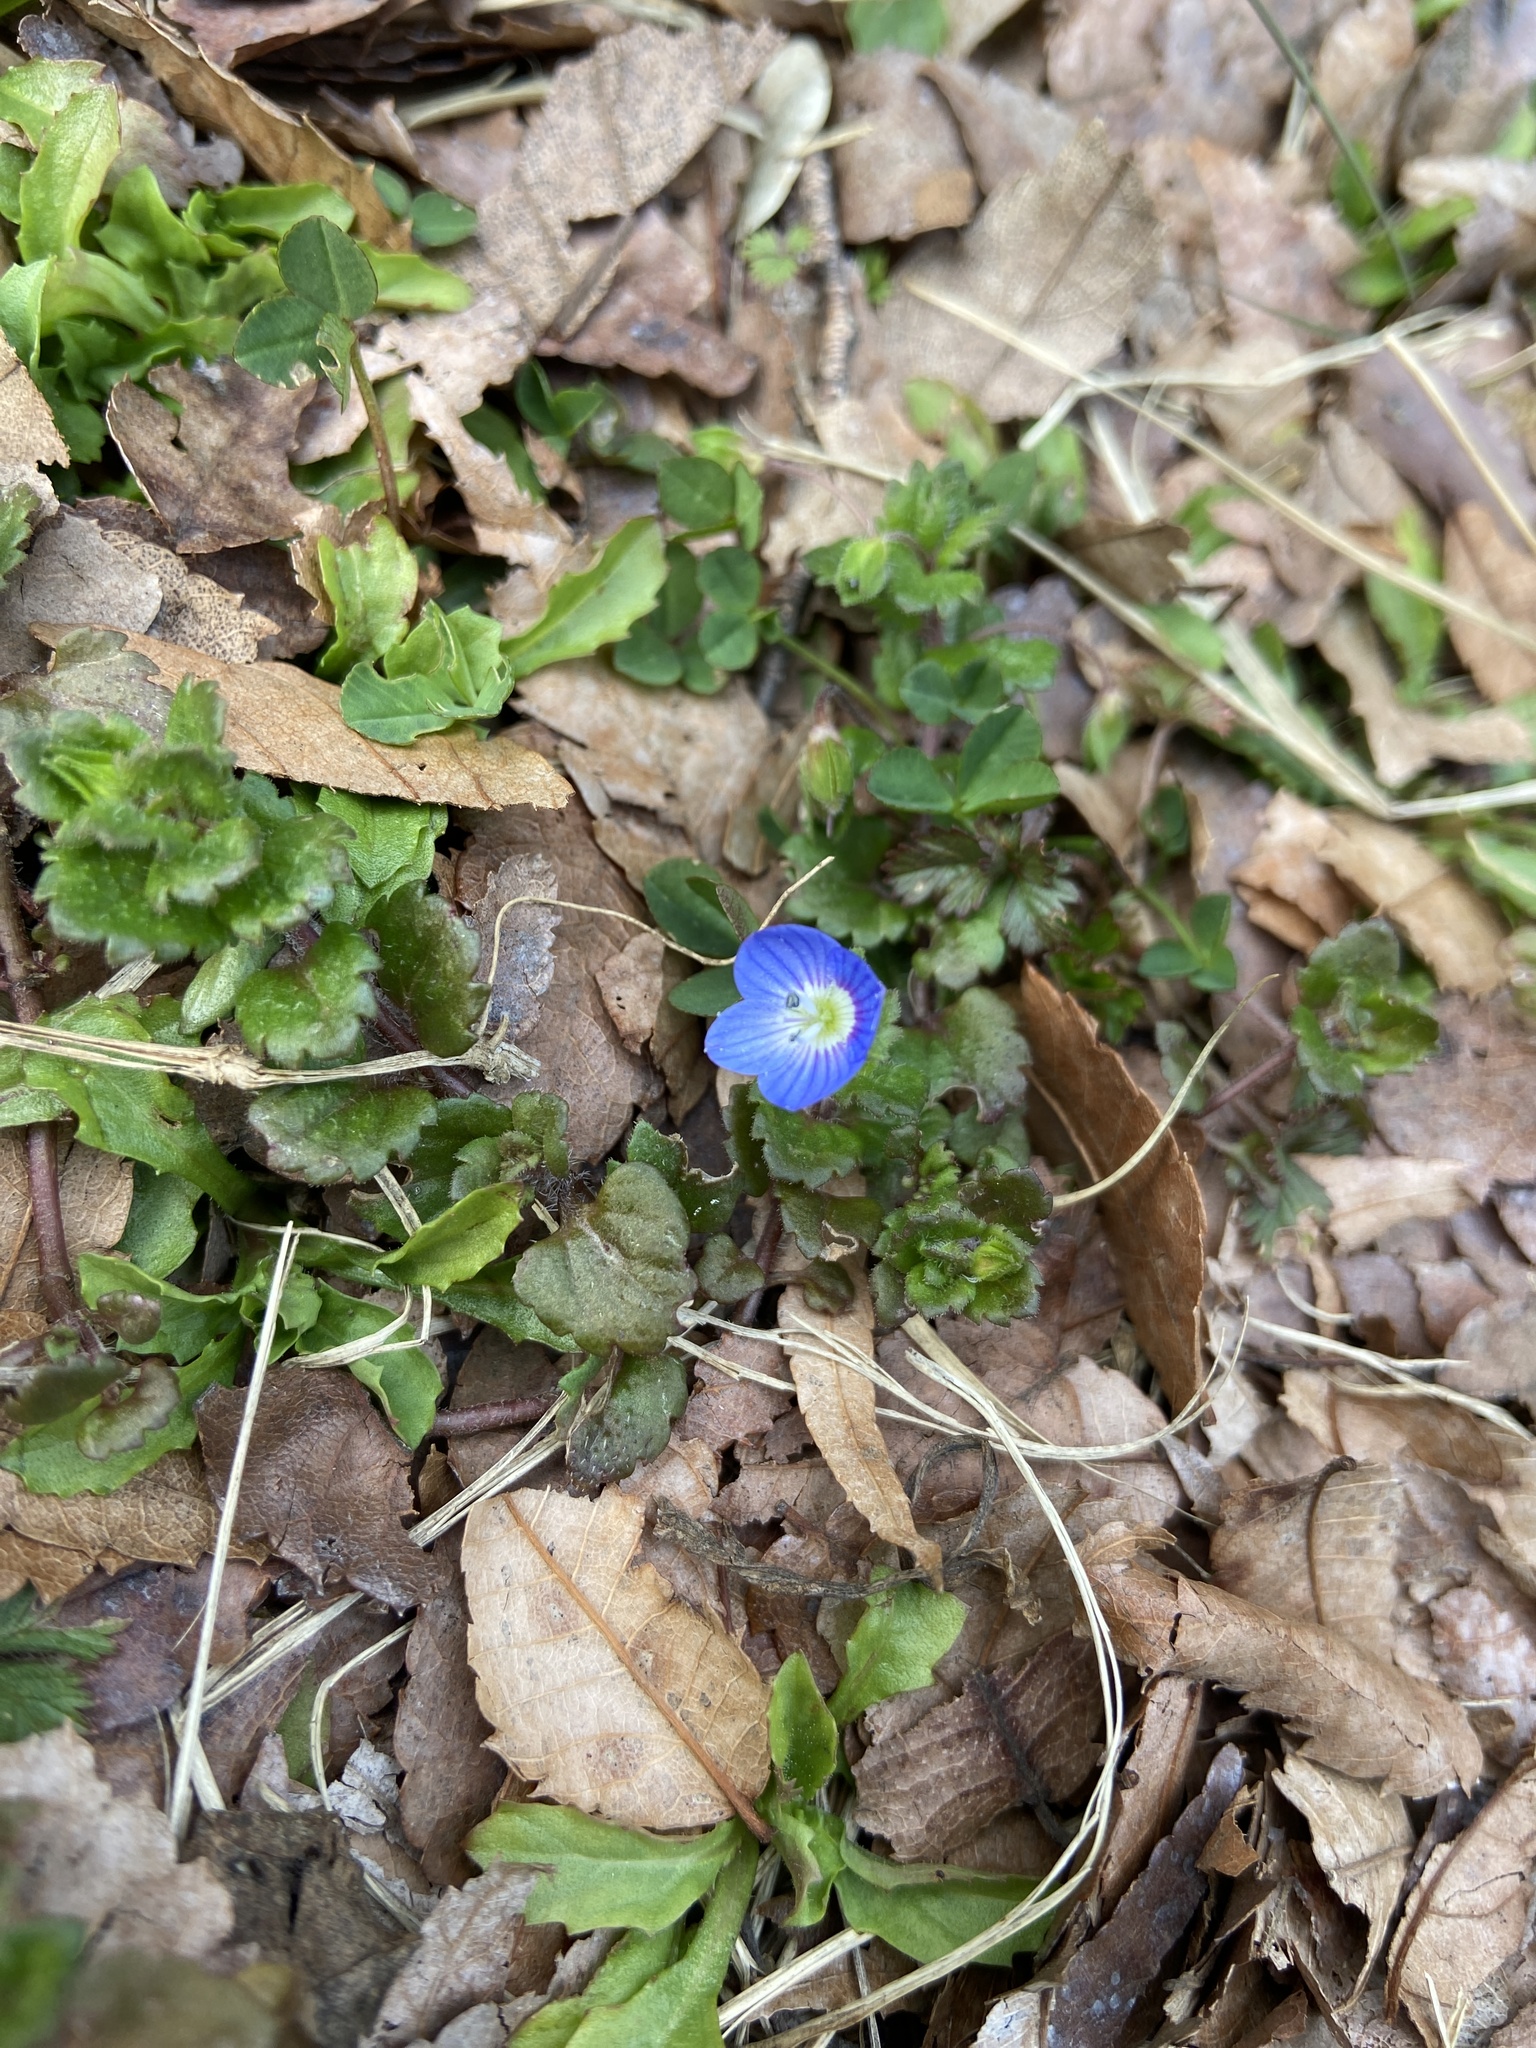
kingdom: Plantae
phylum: Tracheophyta
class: Magnoliopsida
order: Lamiales
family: Plantaginaceae
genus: Veronica
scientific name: Veronica persica
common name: Common field-speedwell
